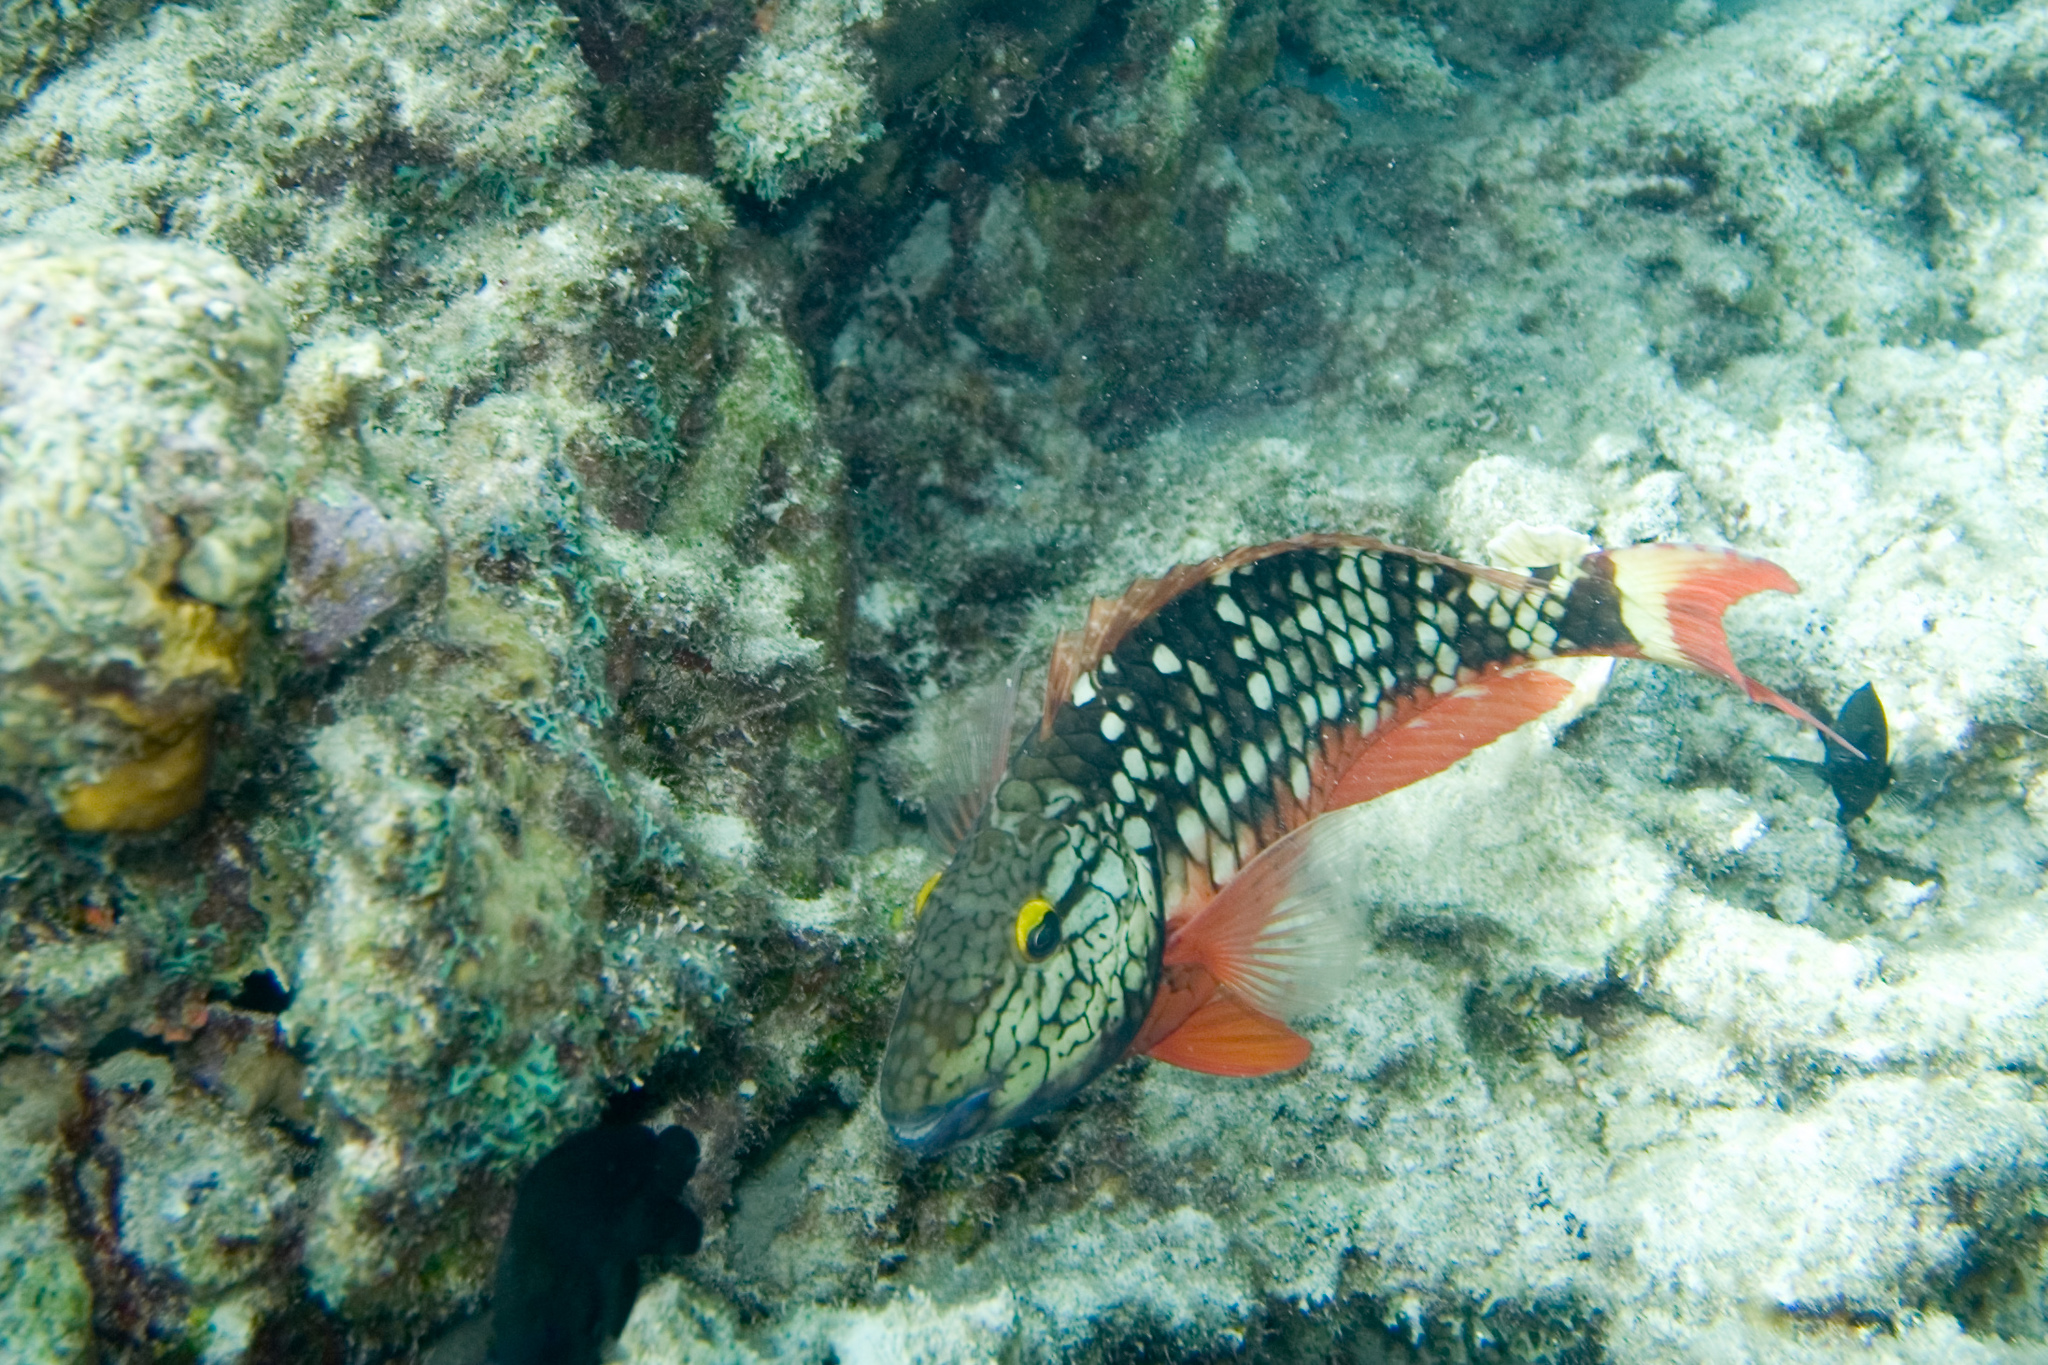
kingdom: Animalia
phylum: Chordata
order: Perciformes
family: Scaridae
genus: Sparisoma
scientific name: Sparisoma viride
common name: Stoplight parrotfish
